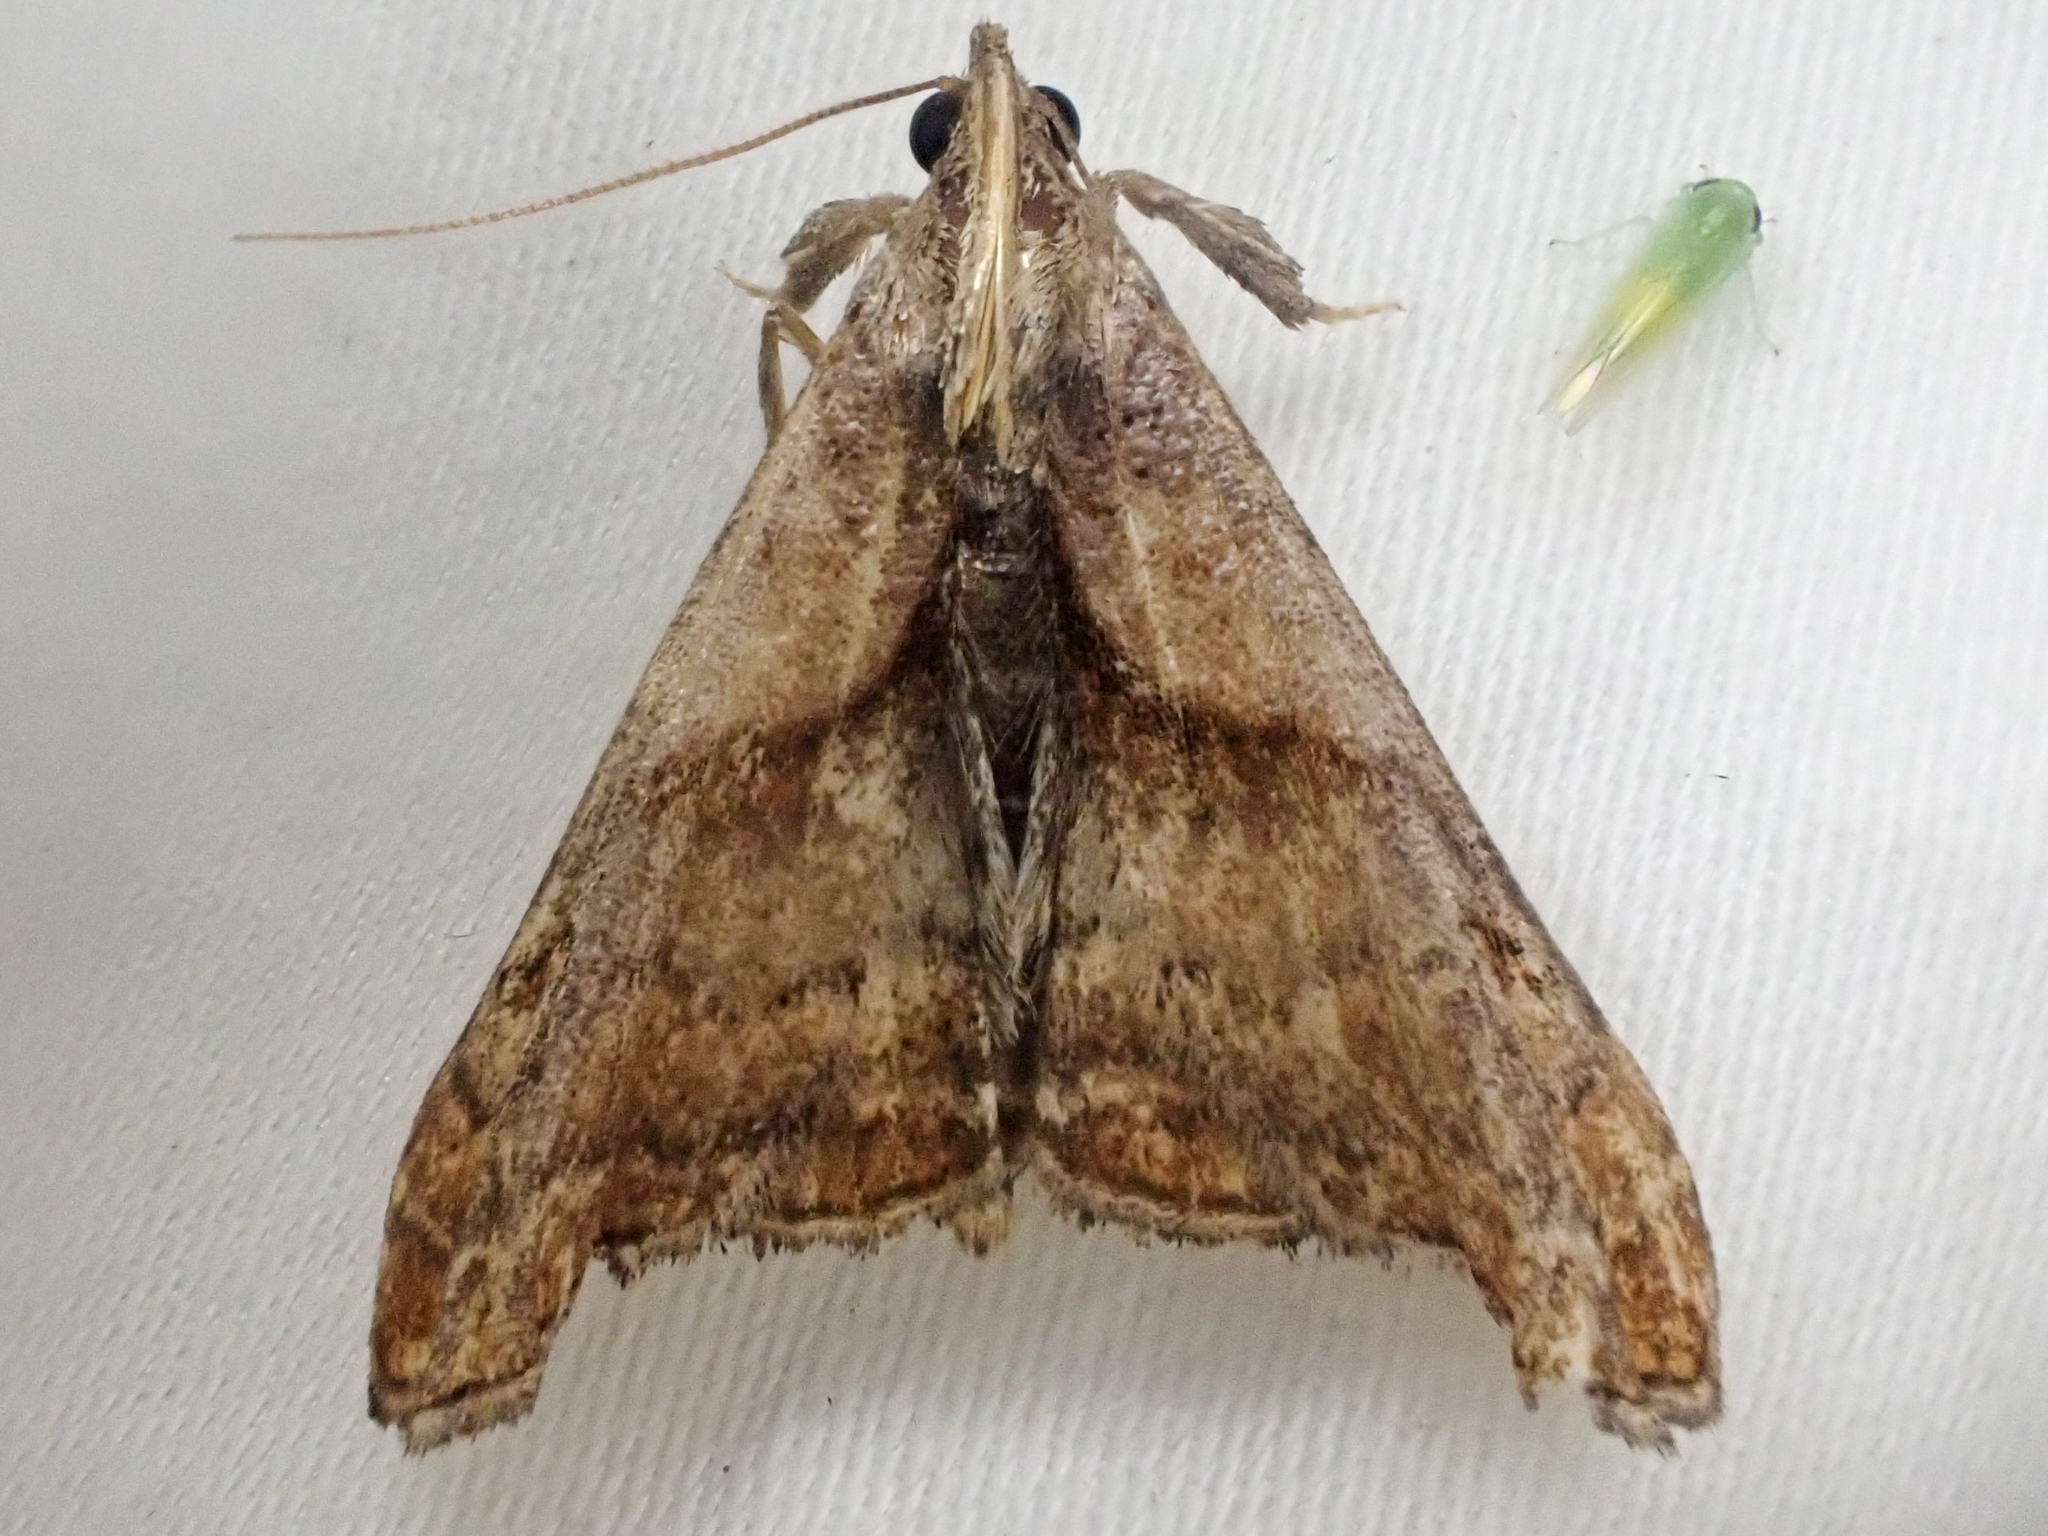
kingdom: Animalia
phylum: Arthropoda
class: Insecta
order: Lepidoptera
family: Erebidae
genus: Palthis
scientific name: Palthis angulalis
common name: Dark-spotted palthis moth
